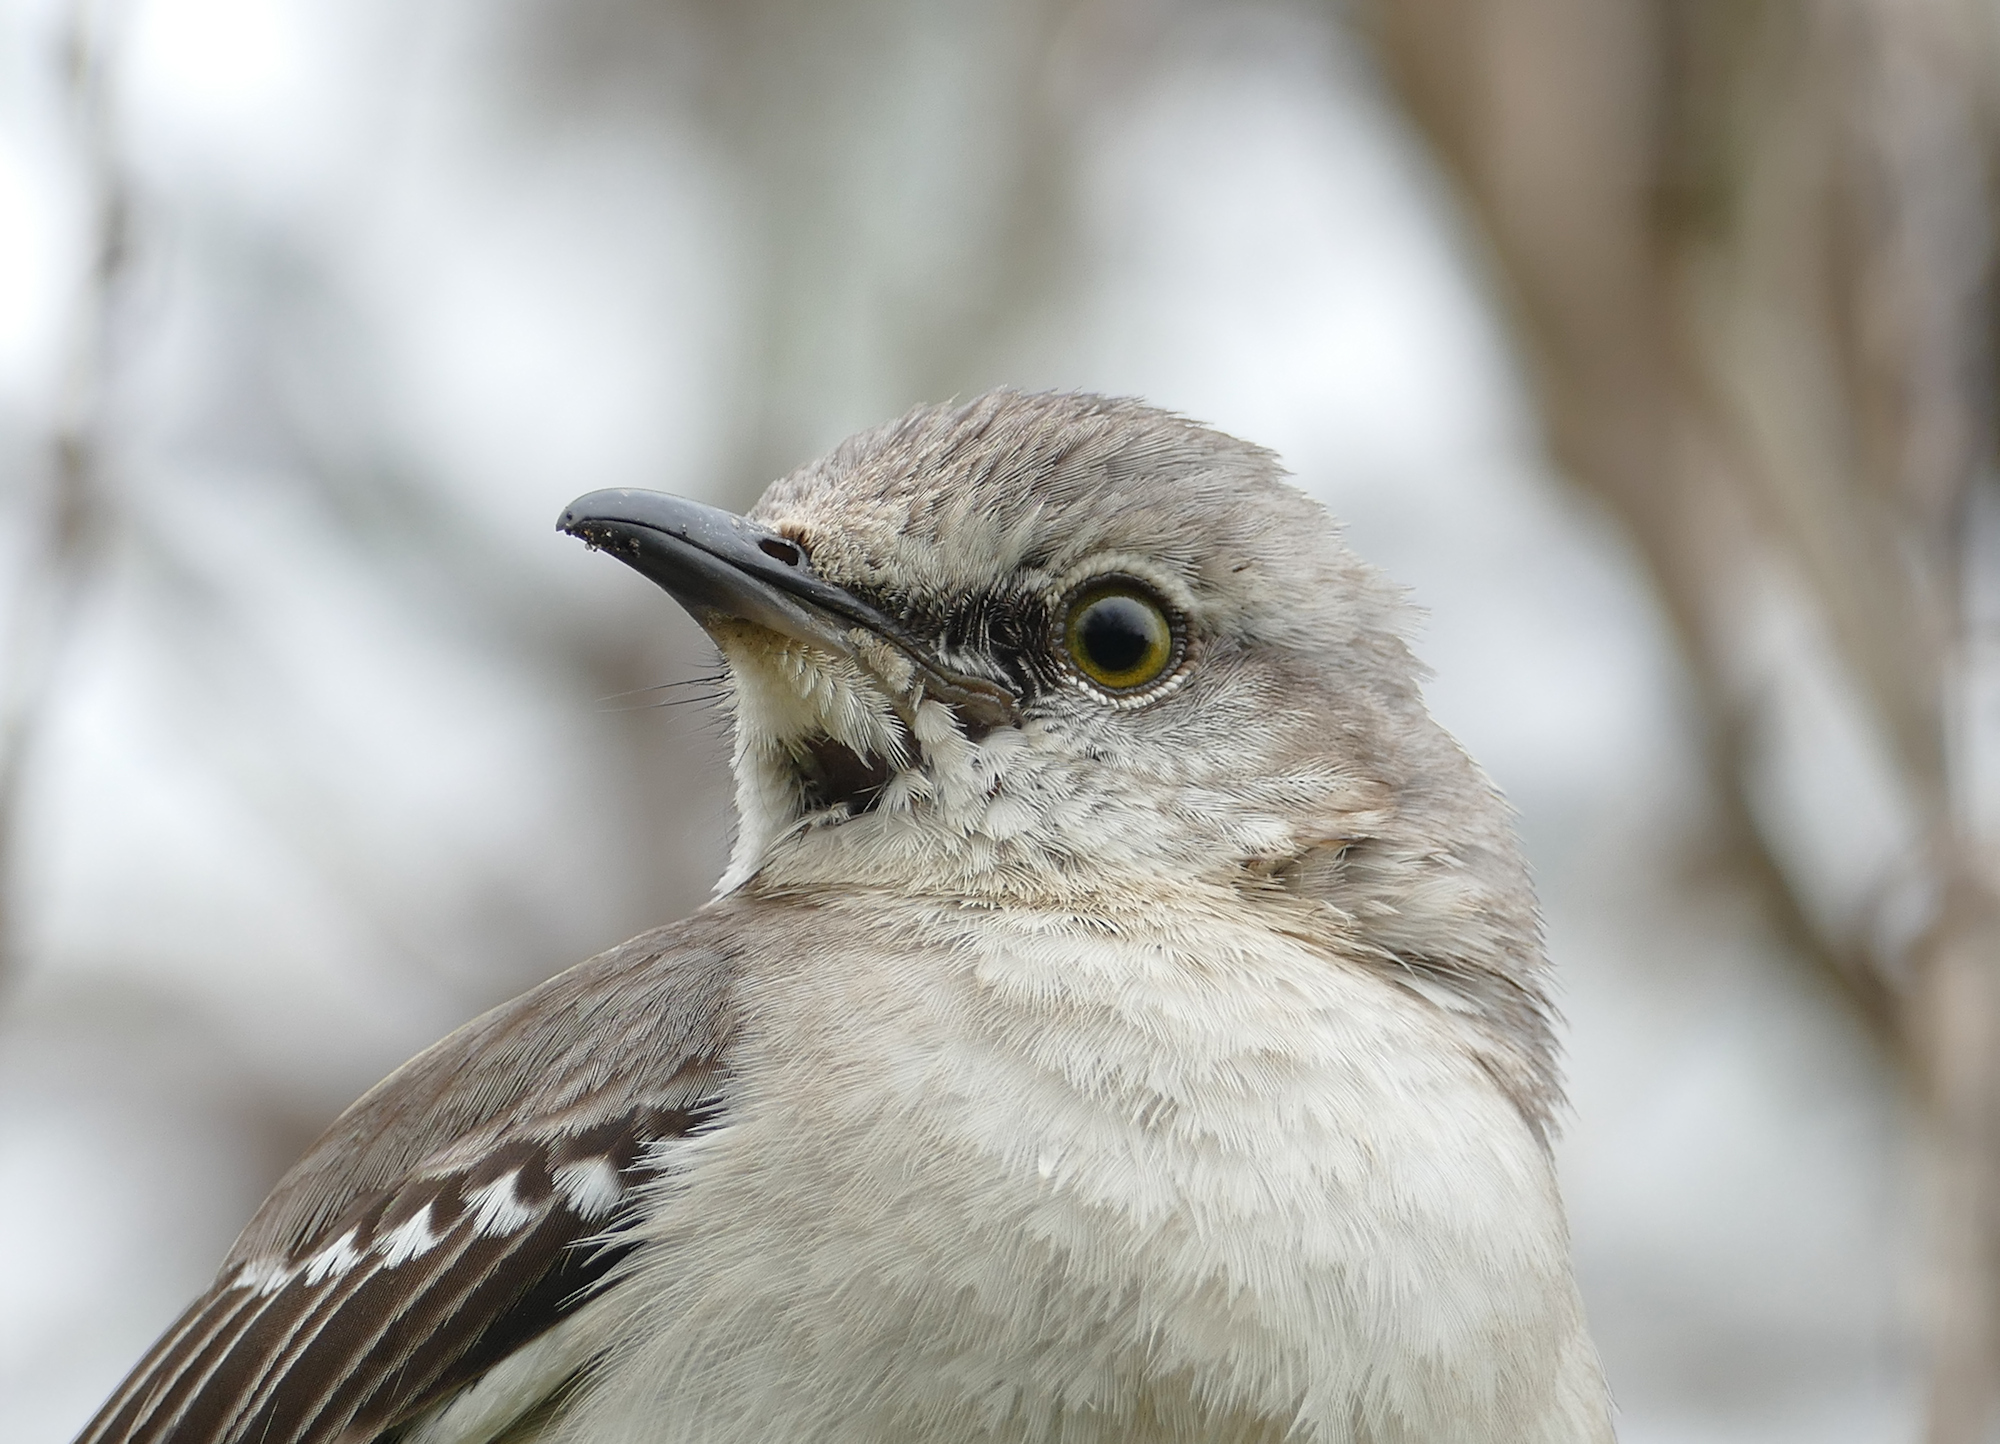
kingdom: Animalia
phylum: Chordata
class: Aves
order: Passeriformes
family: Mimidae
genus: Mimus
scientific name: Mimus polyglottos
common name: Northern mockingbird
